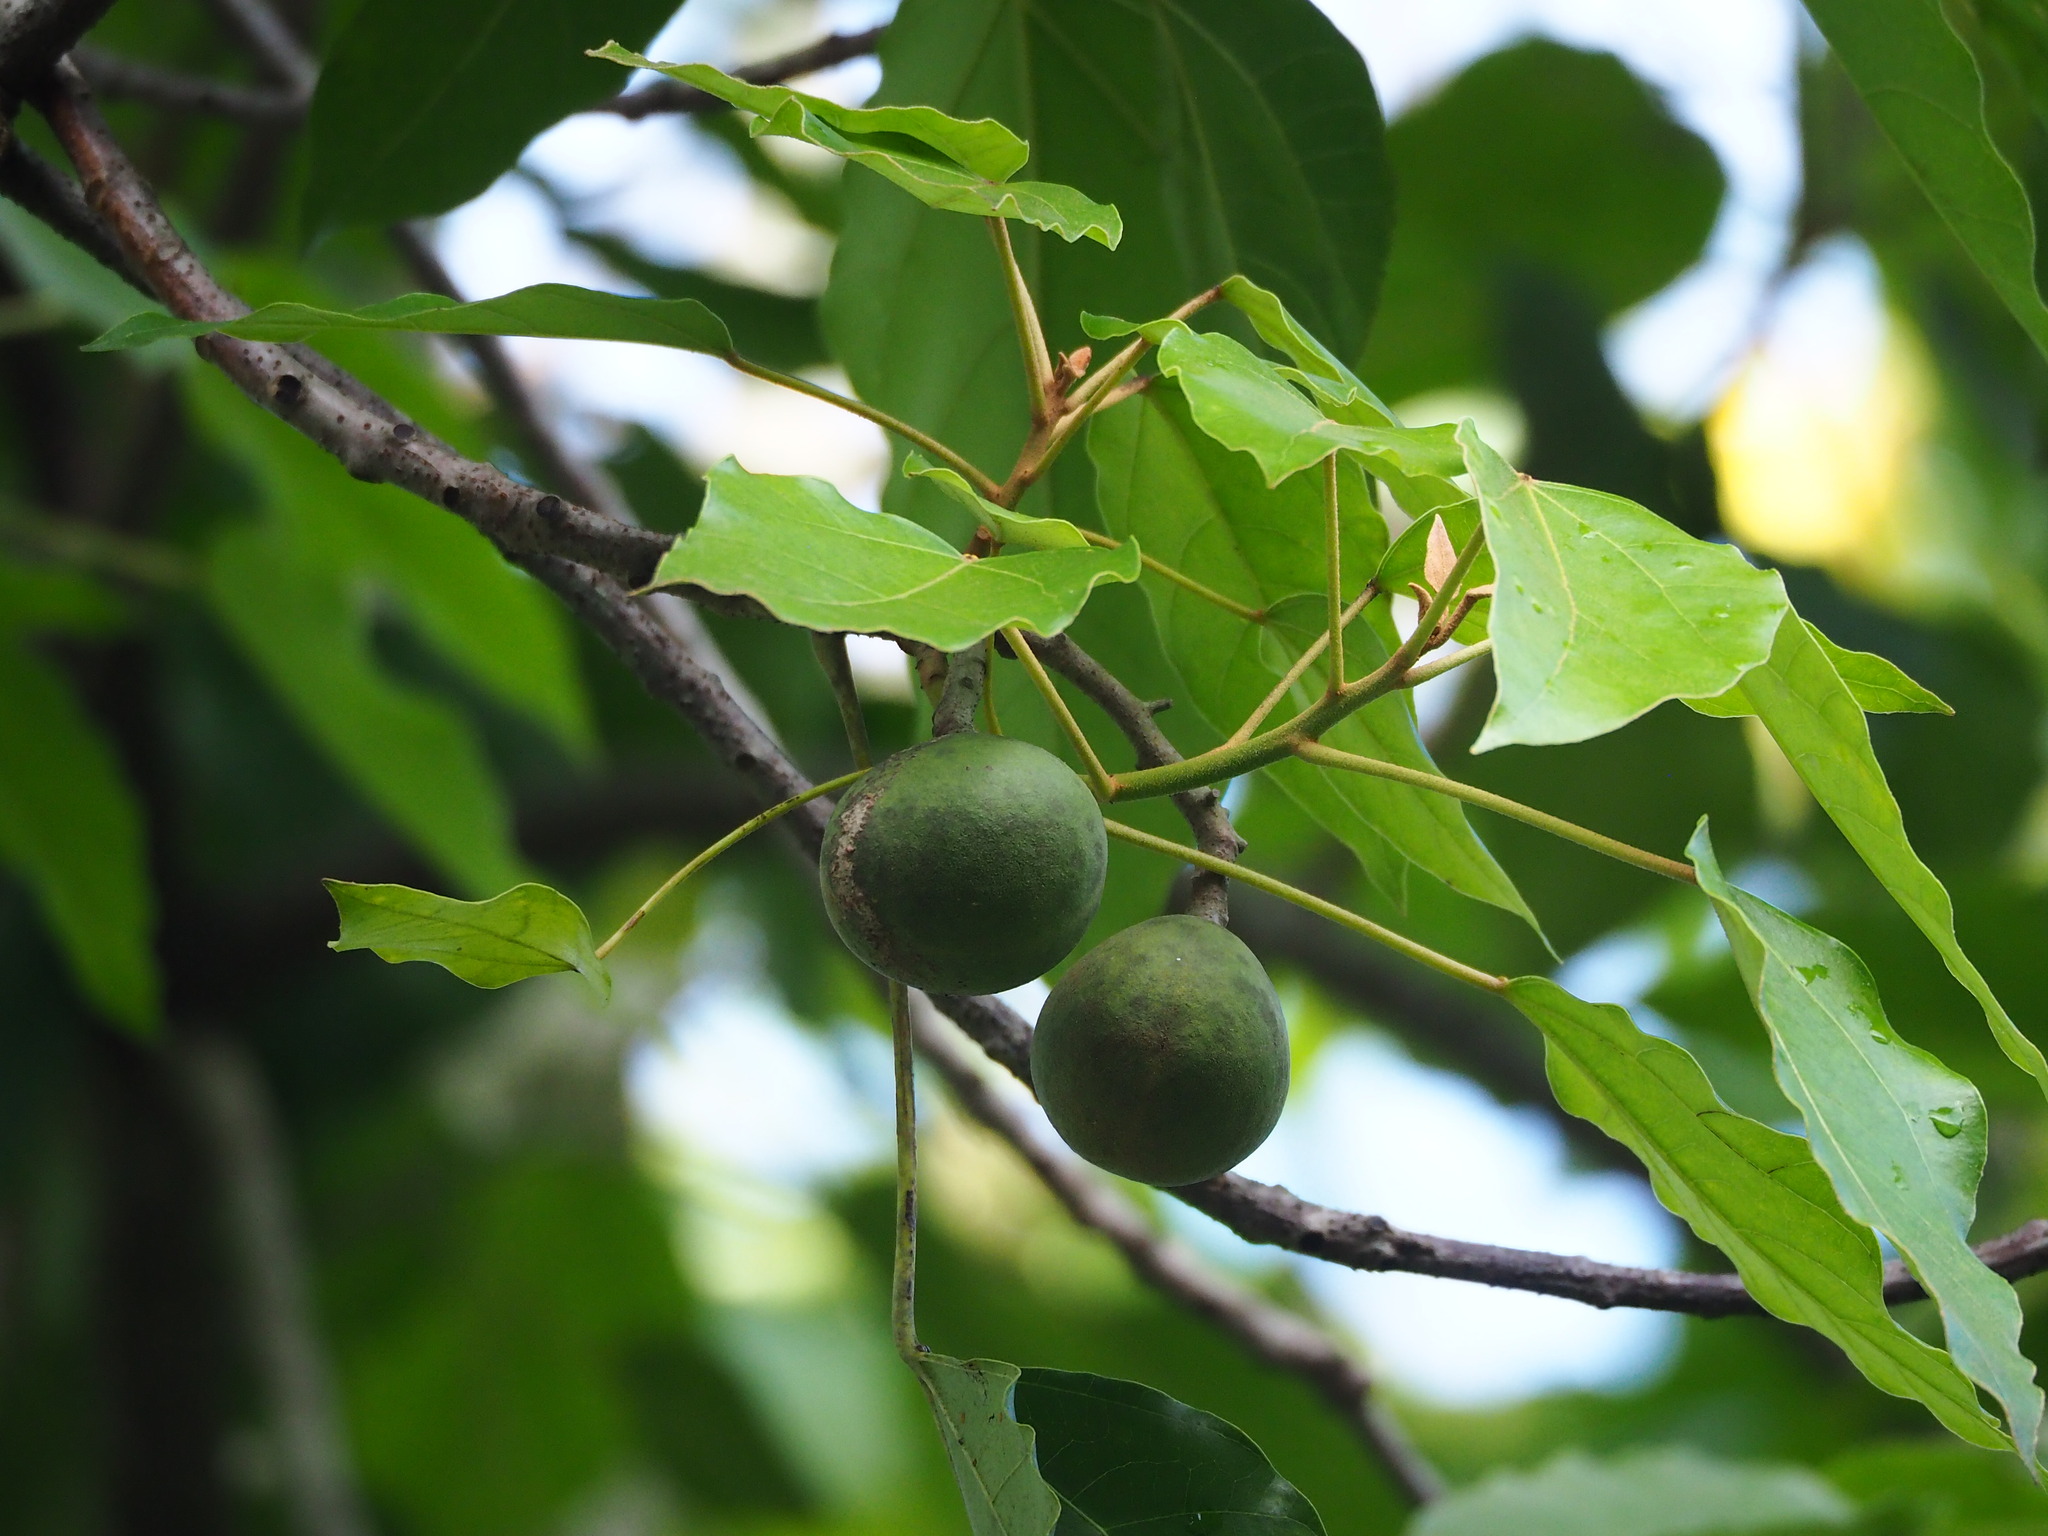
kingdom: Plantae
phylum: Tracheophyta
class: Magnoliopsida
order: Malpighiales
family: Euphorbiaceae
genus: Aleurites
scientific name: Aleurites moluccanus
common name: Candlenut tree
